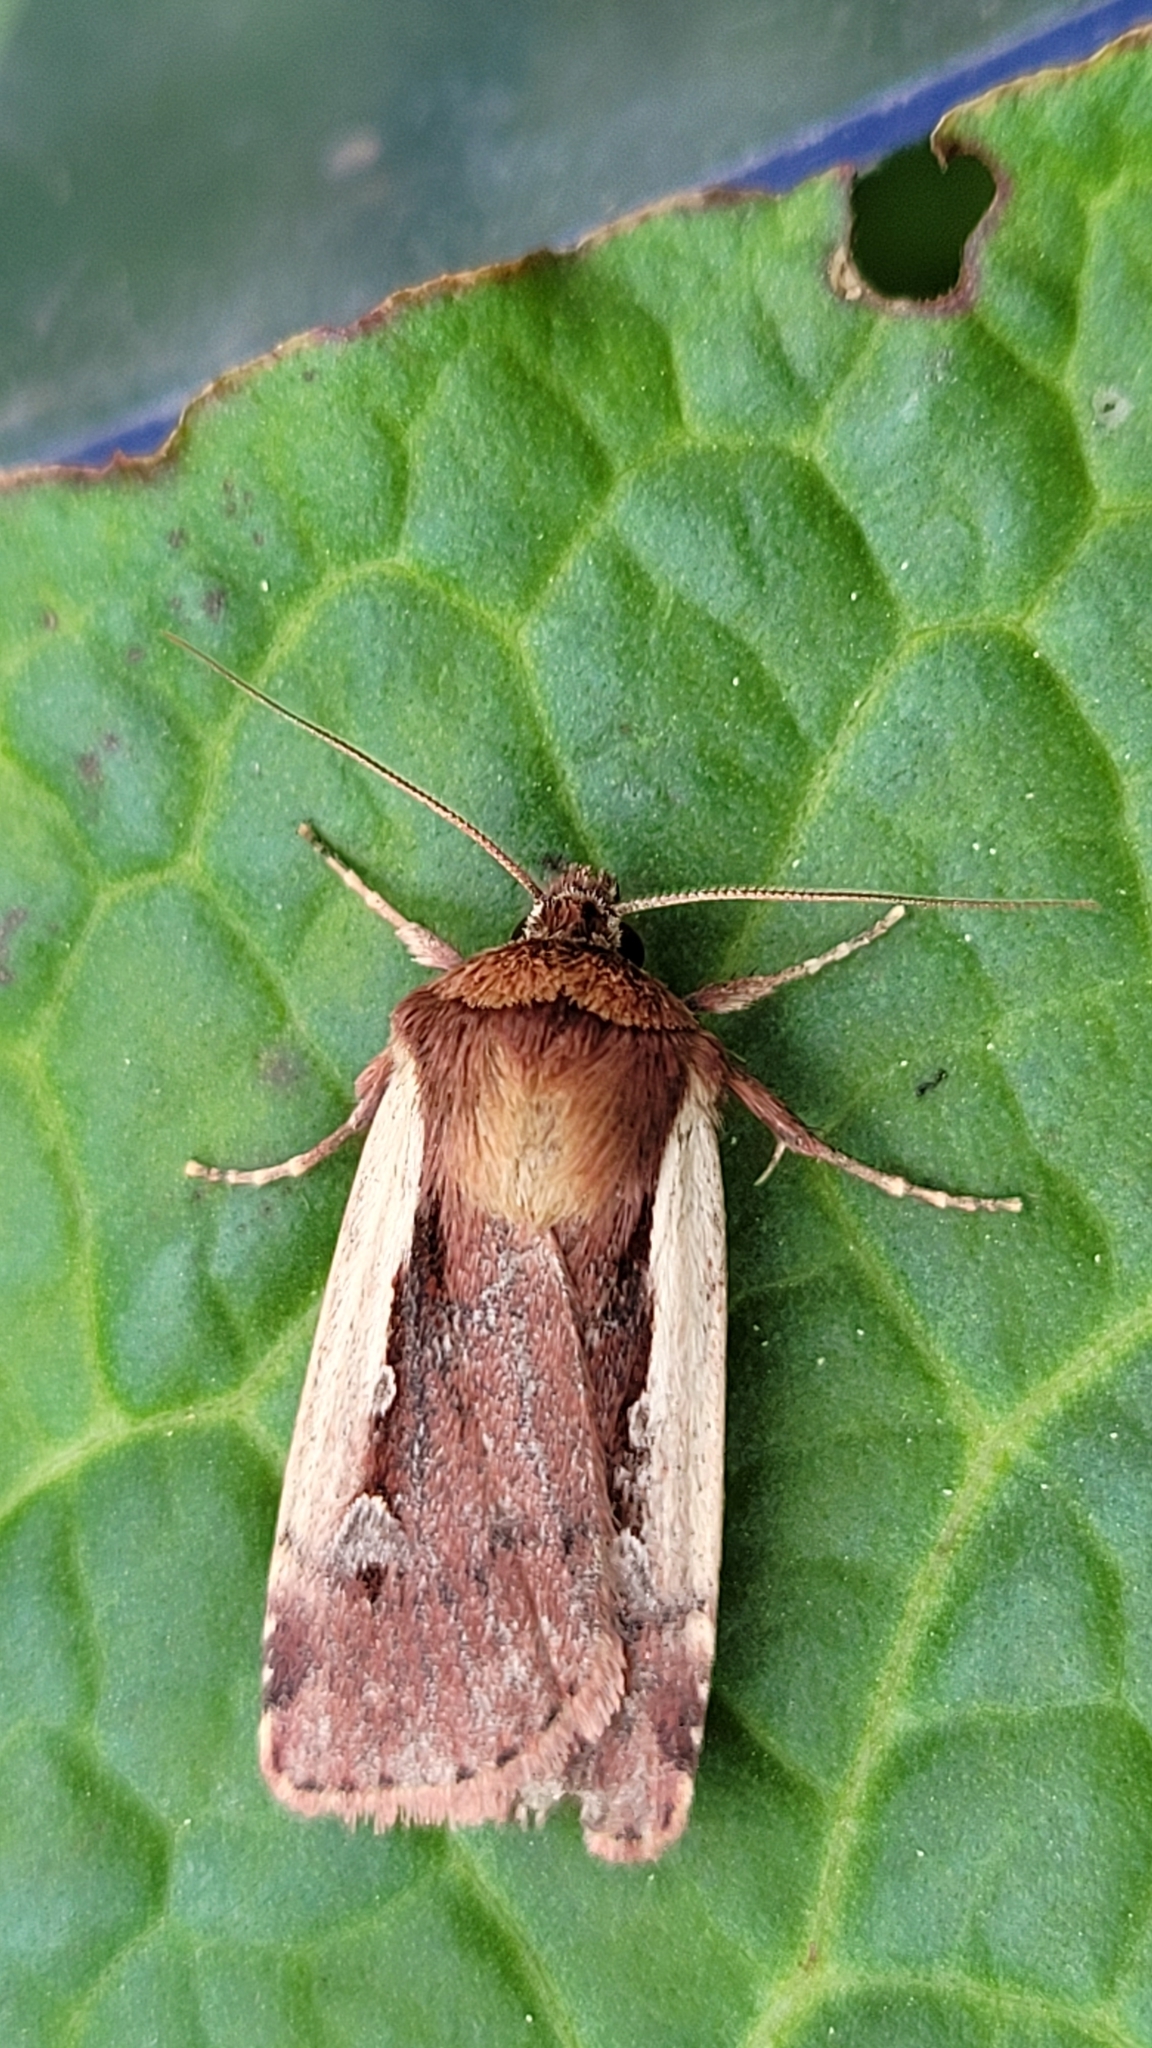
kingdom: Animalia
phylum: Arthropoda
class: Insecta
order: Lepidoptera
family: Noctuidae
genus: Ochropleura
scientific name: Ochropleura plecta
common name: Flame shoulder
